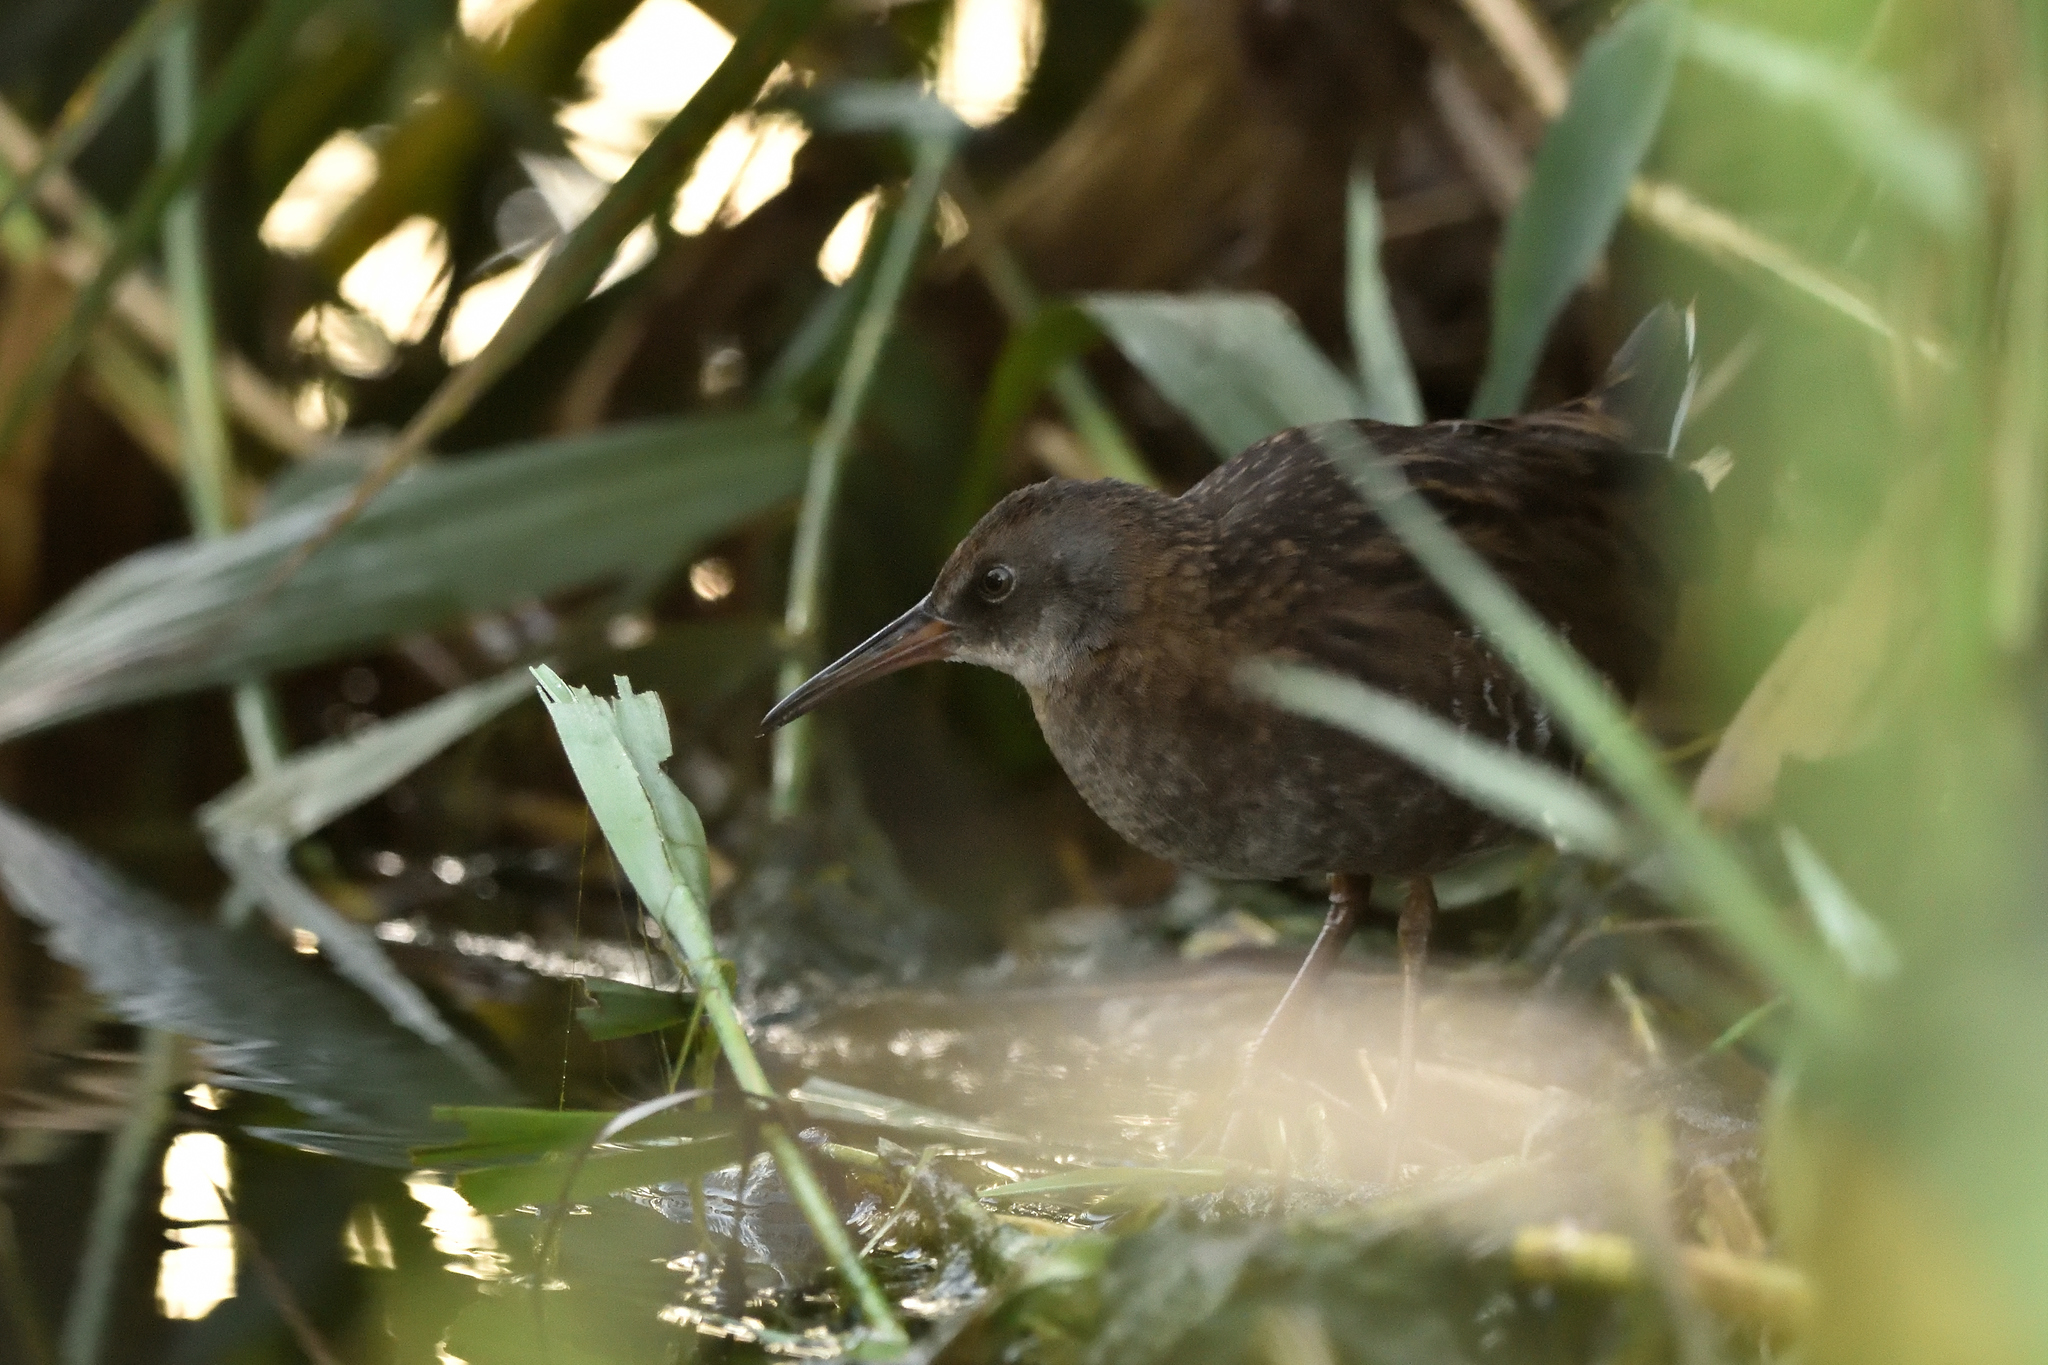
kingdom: Animalia
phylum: Chordata
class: Aves
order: Gruiformes
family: Rallidae
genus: Rallus
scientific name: Rallus aquaticus
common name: Water rail
